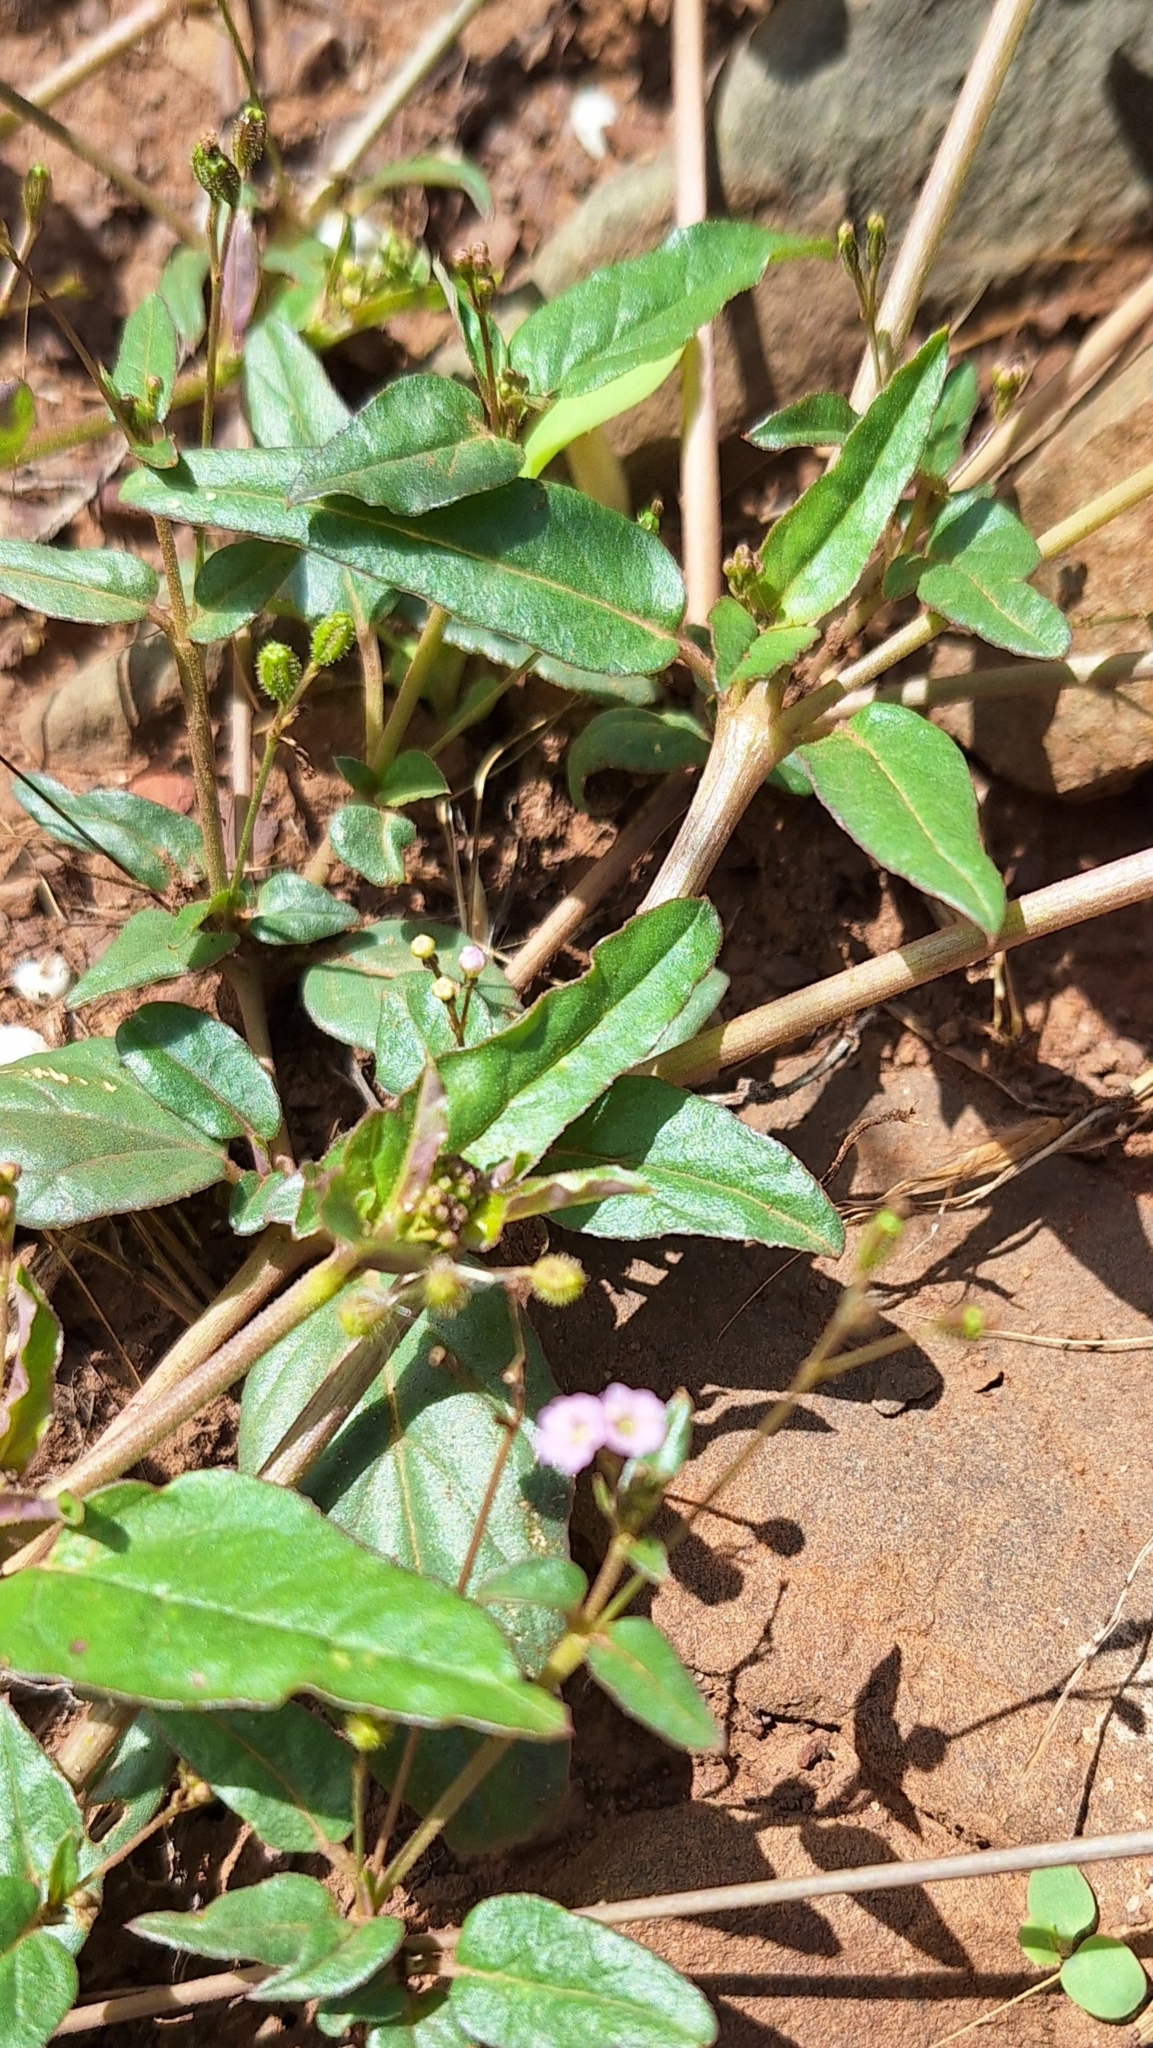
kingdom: Plantae
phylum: Tracheophyta
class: Magnoliopsida
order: Caryophyllales
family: Nyctaginaceae
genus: Boerhavia
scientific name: Boerhavia dominii
